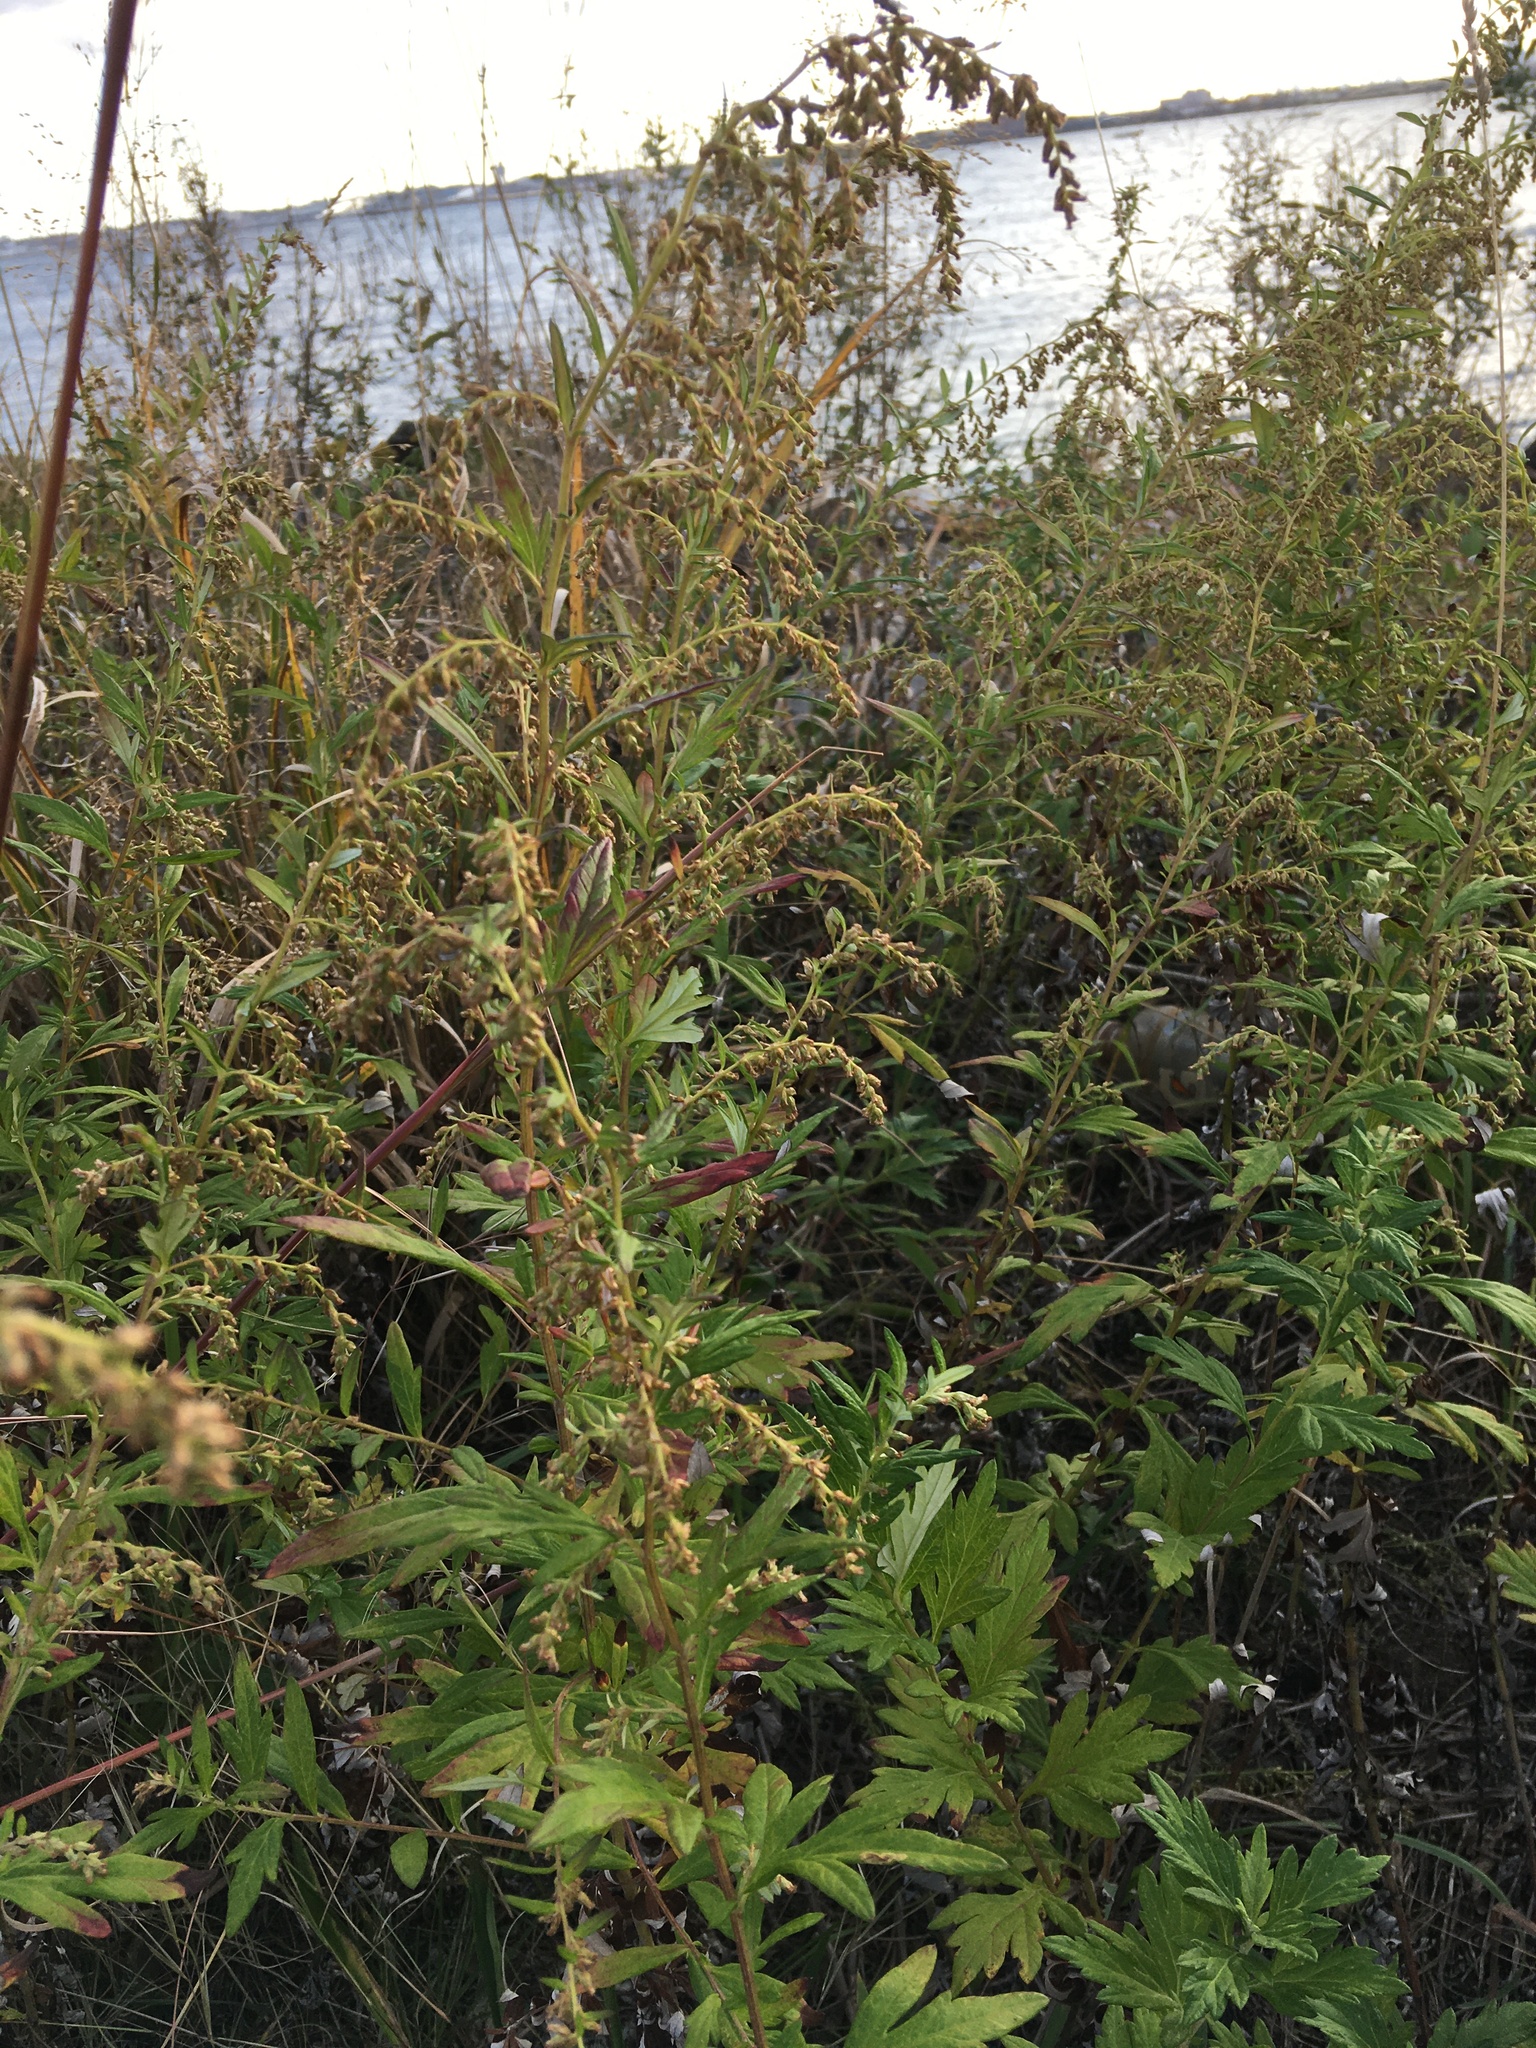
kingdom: Plantae
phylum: Tracheophyta
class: Magnoliopsida
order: Asterales
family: Asteraceae
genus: Artemisia
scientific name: Artemisia vulgaris
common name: Mugwort
